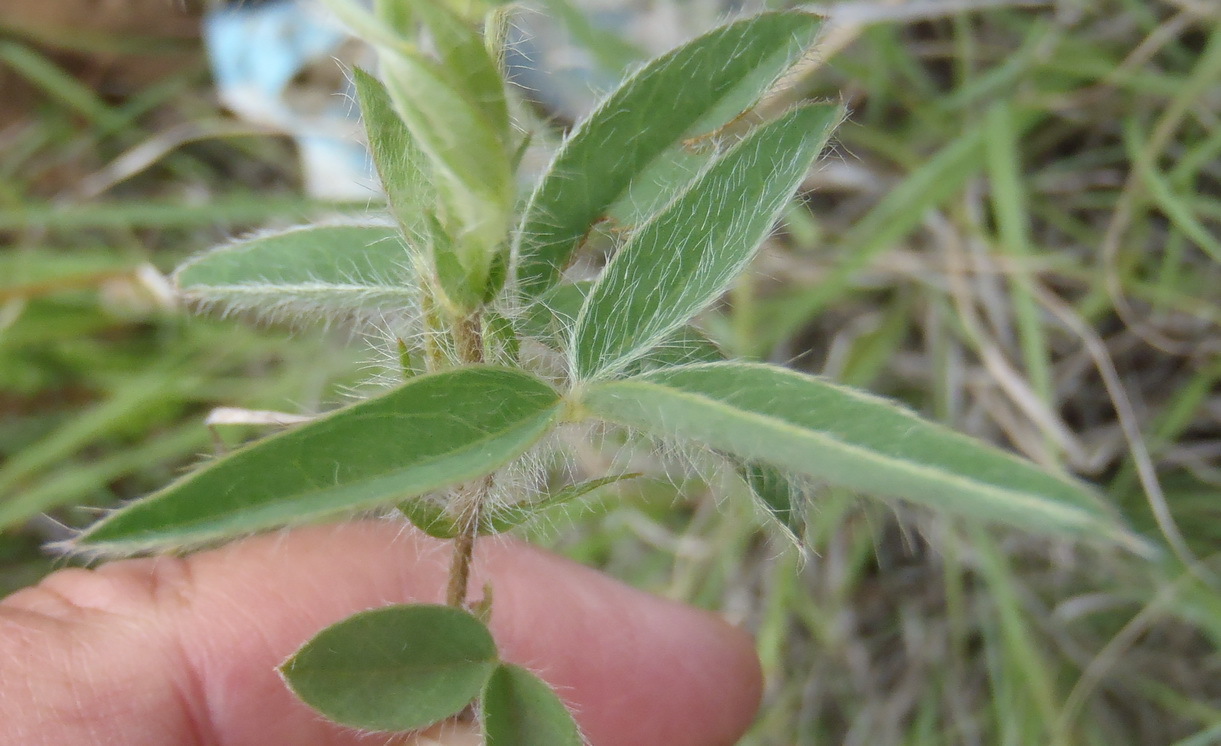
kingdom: Plantae
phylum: Tracheophyta
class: Magnoliopsida
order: Fabales
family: Fabaceae
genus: Argyrolobium
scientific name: Argyrolobium pauciflorum
